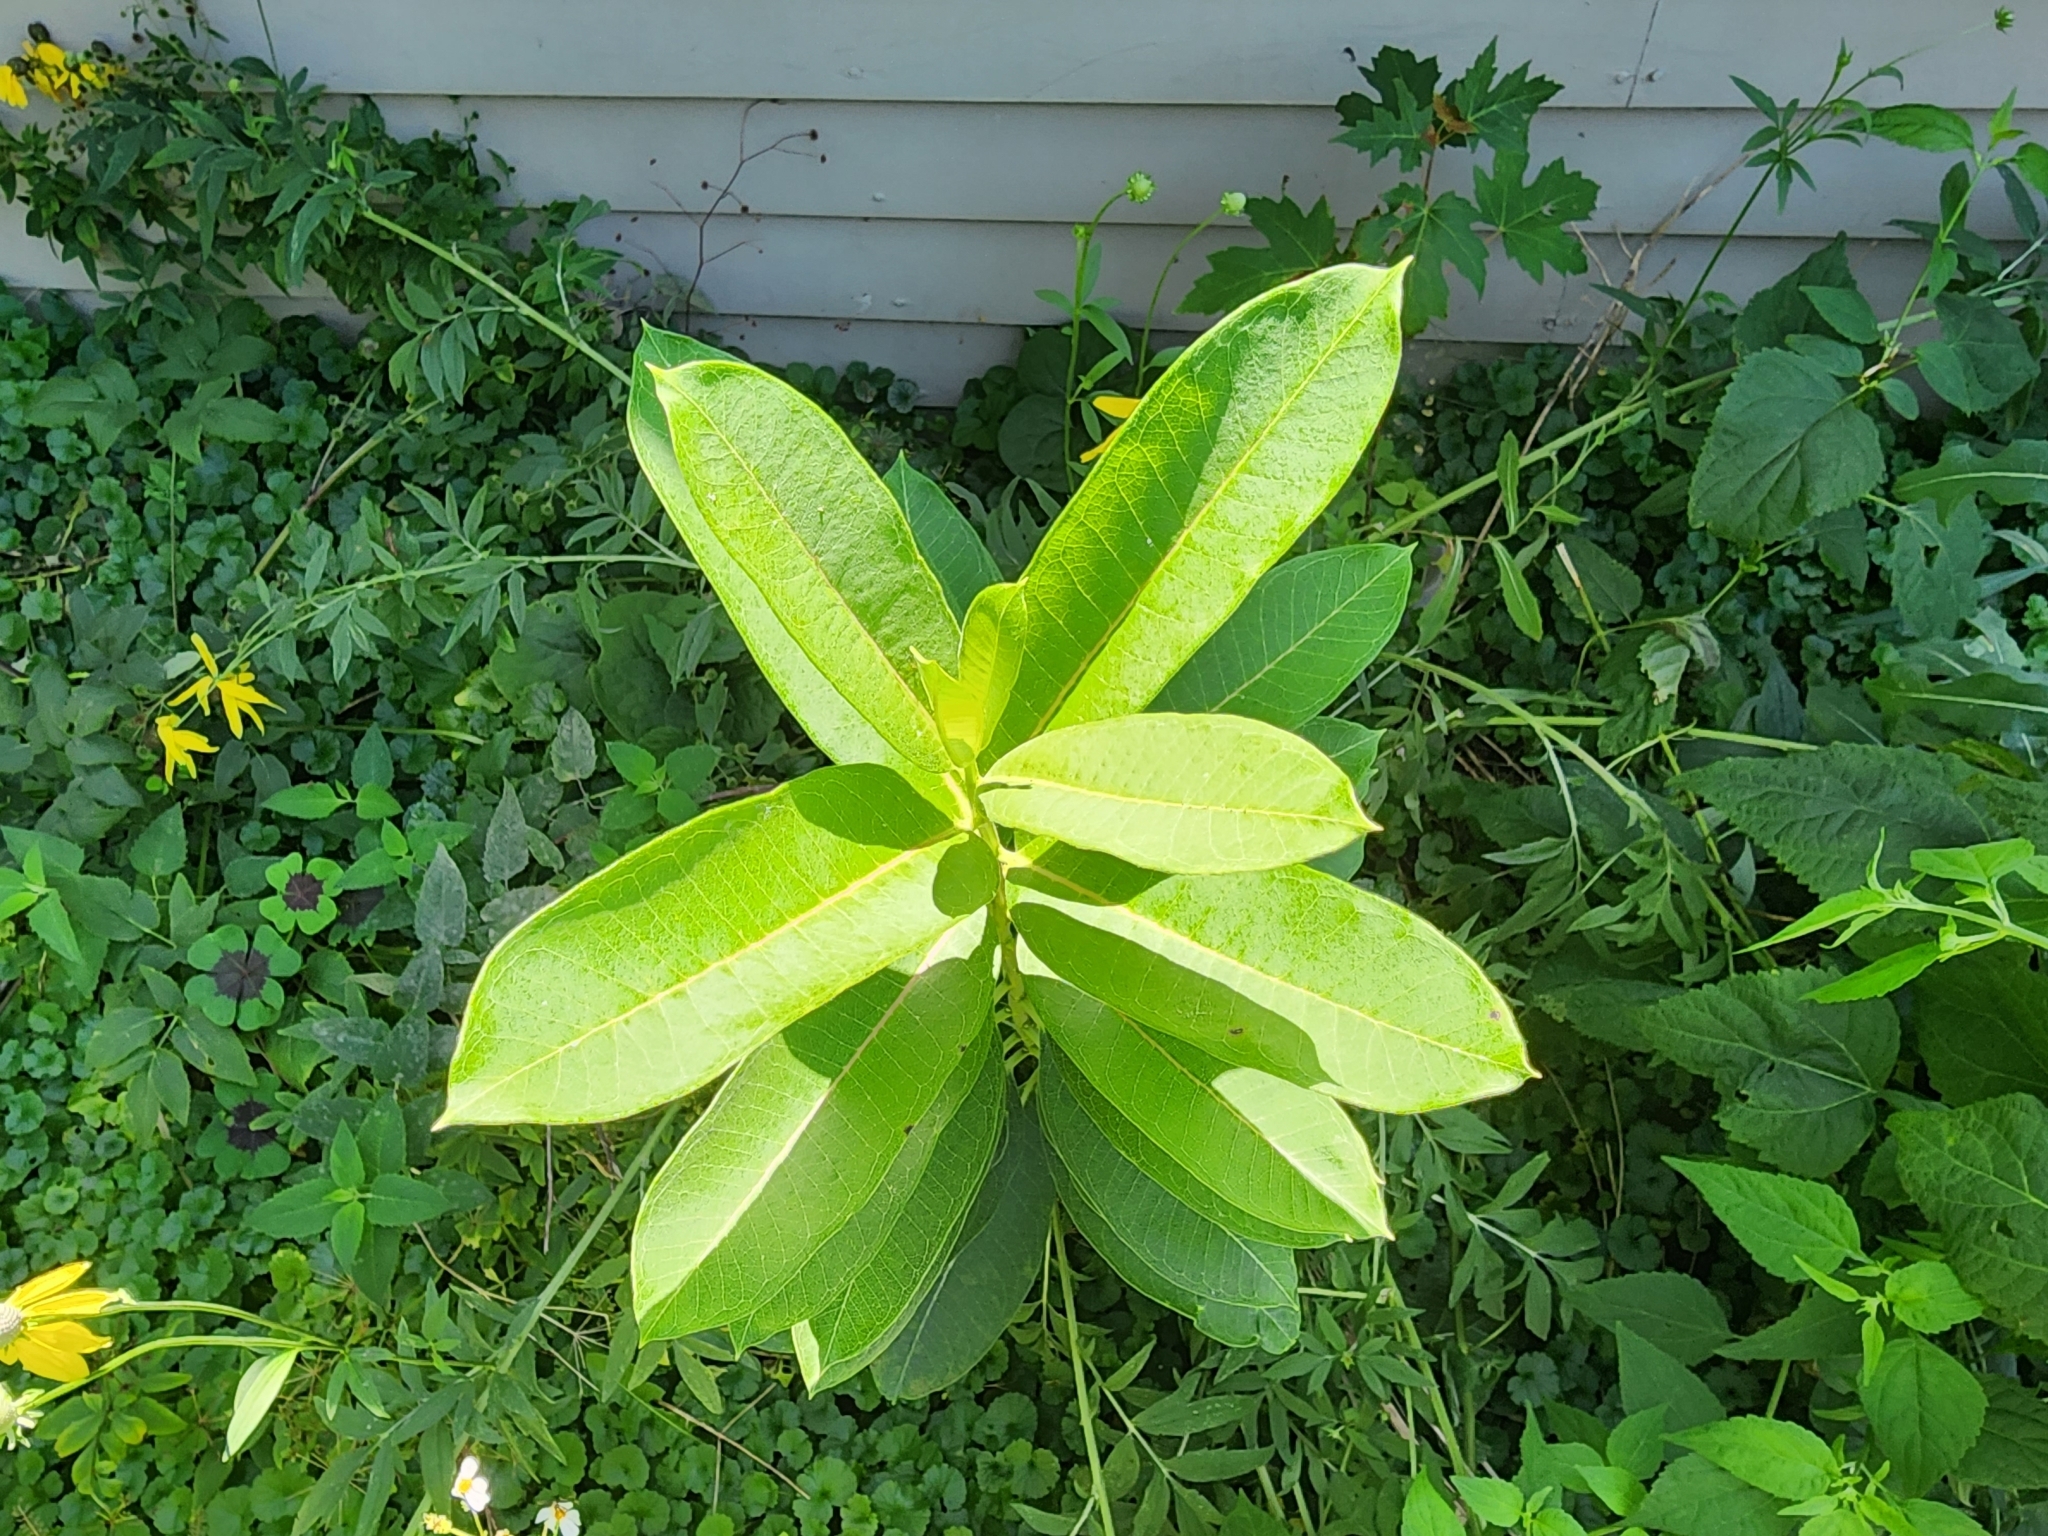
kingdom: Plantae
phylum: Tracheophyta
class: Magnoliopsida
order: Gentianales
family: Apocynaceae
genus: Asclepias
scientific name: Asclepias syriaca
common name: Common milkweed
